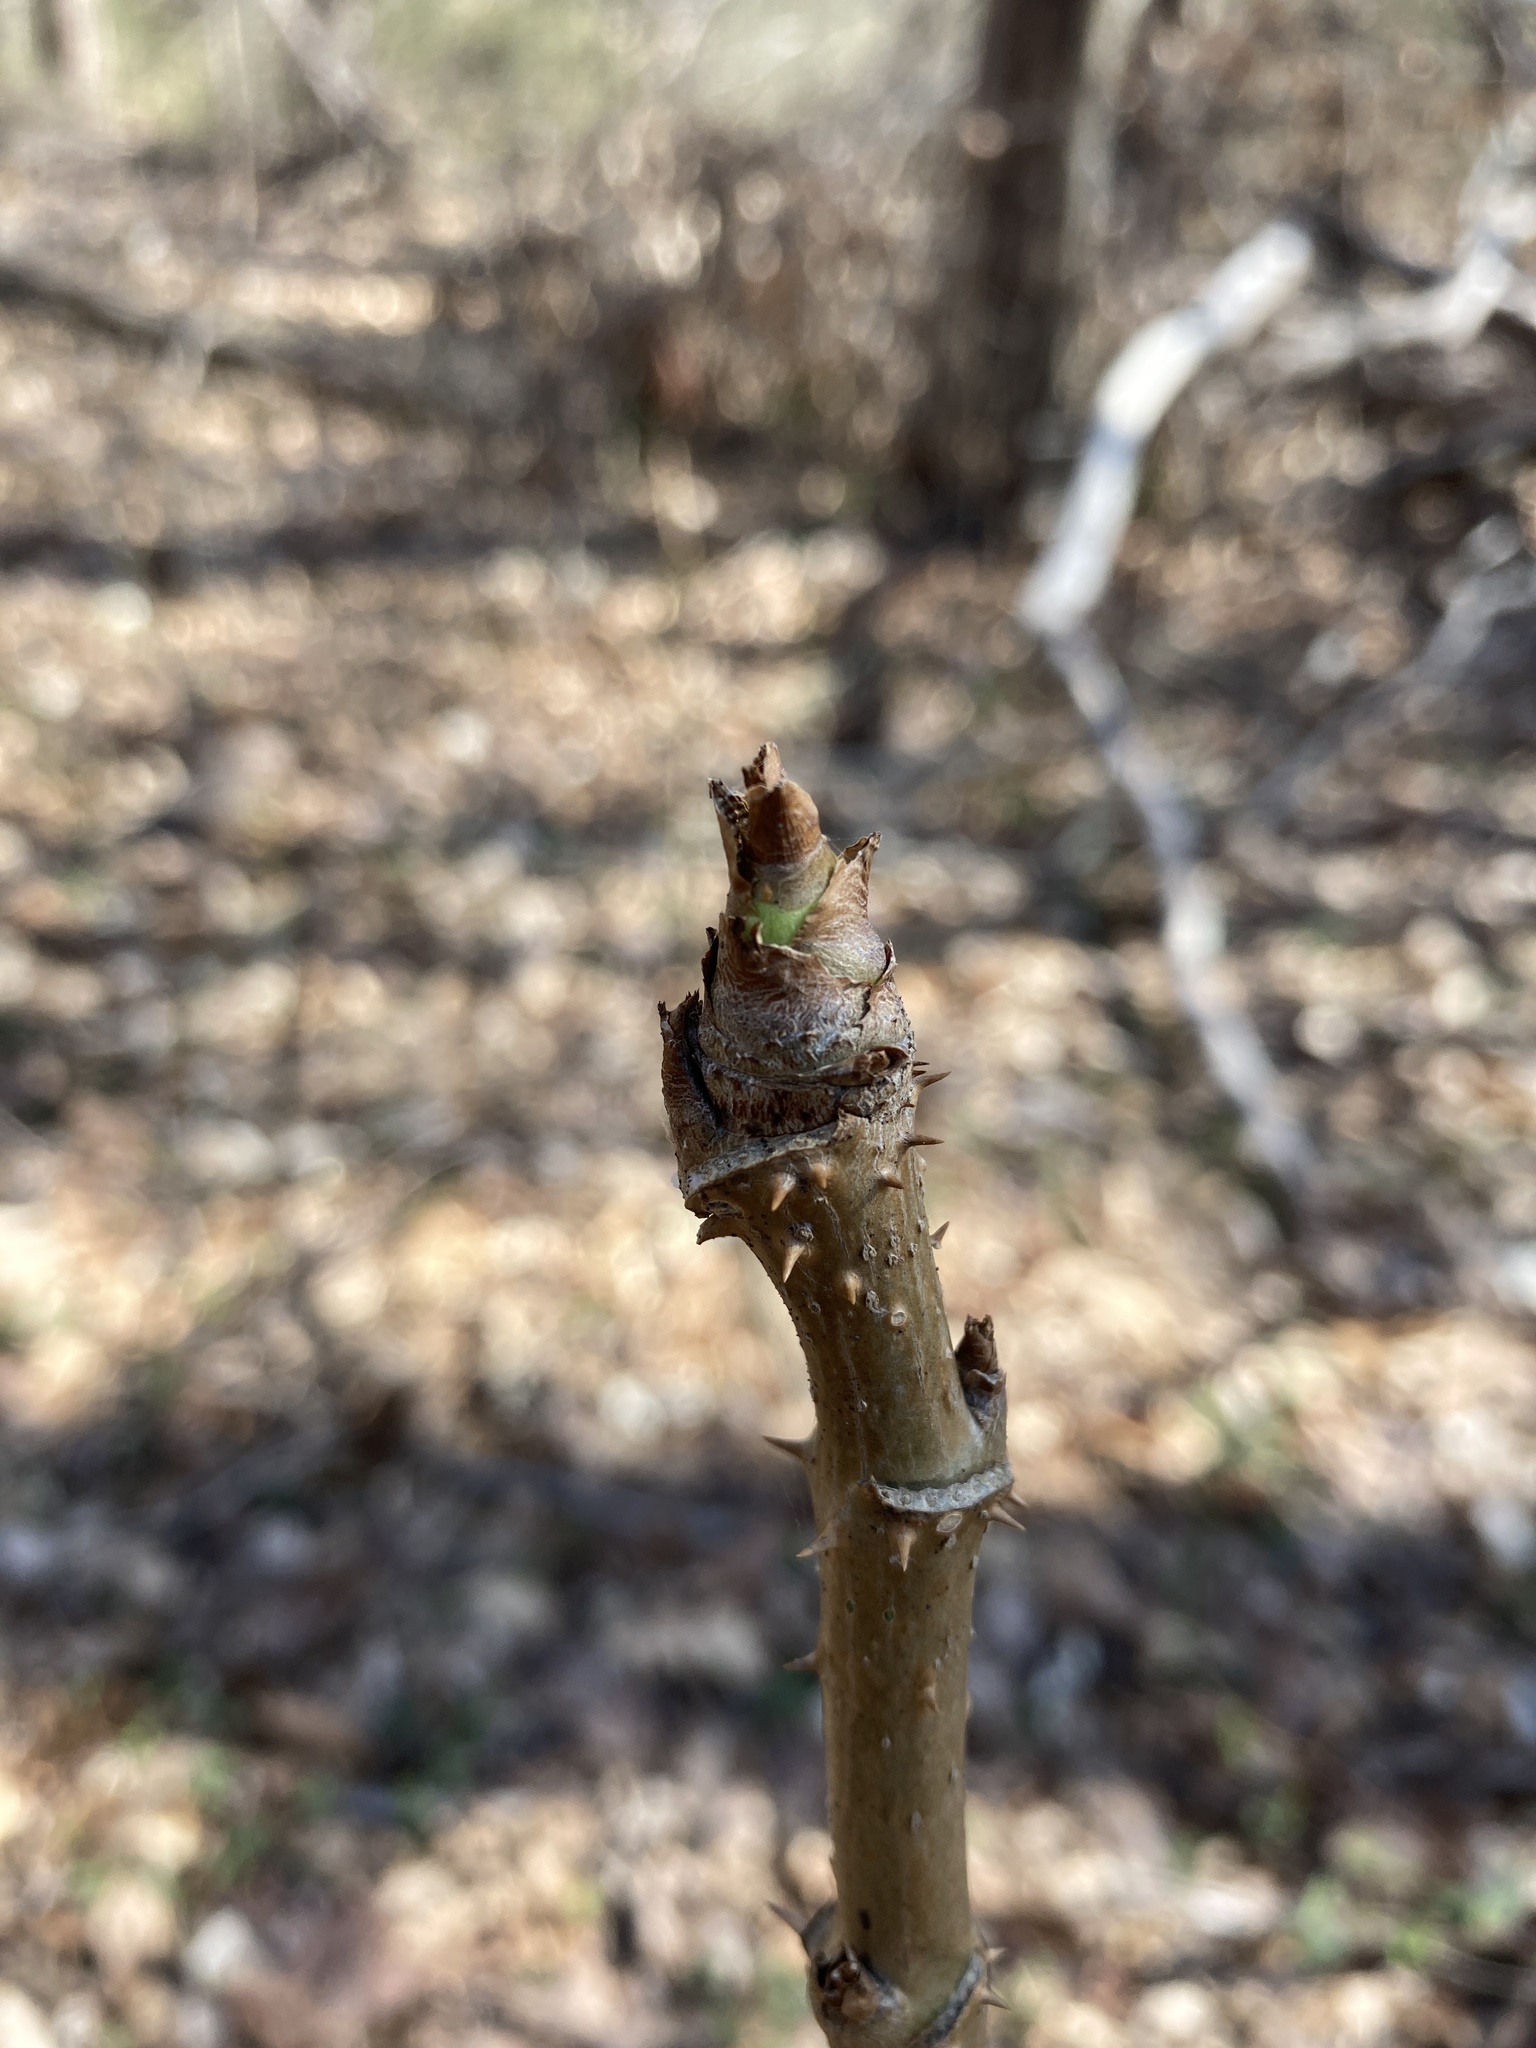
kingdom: Plantae
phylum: Tracheophyta
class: Magnoliopsida
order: Apiales
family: Araliaceae
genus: Aralia
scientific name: Aralia spinosa
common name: Hercules'-club
